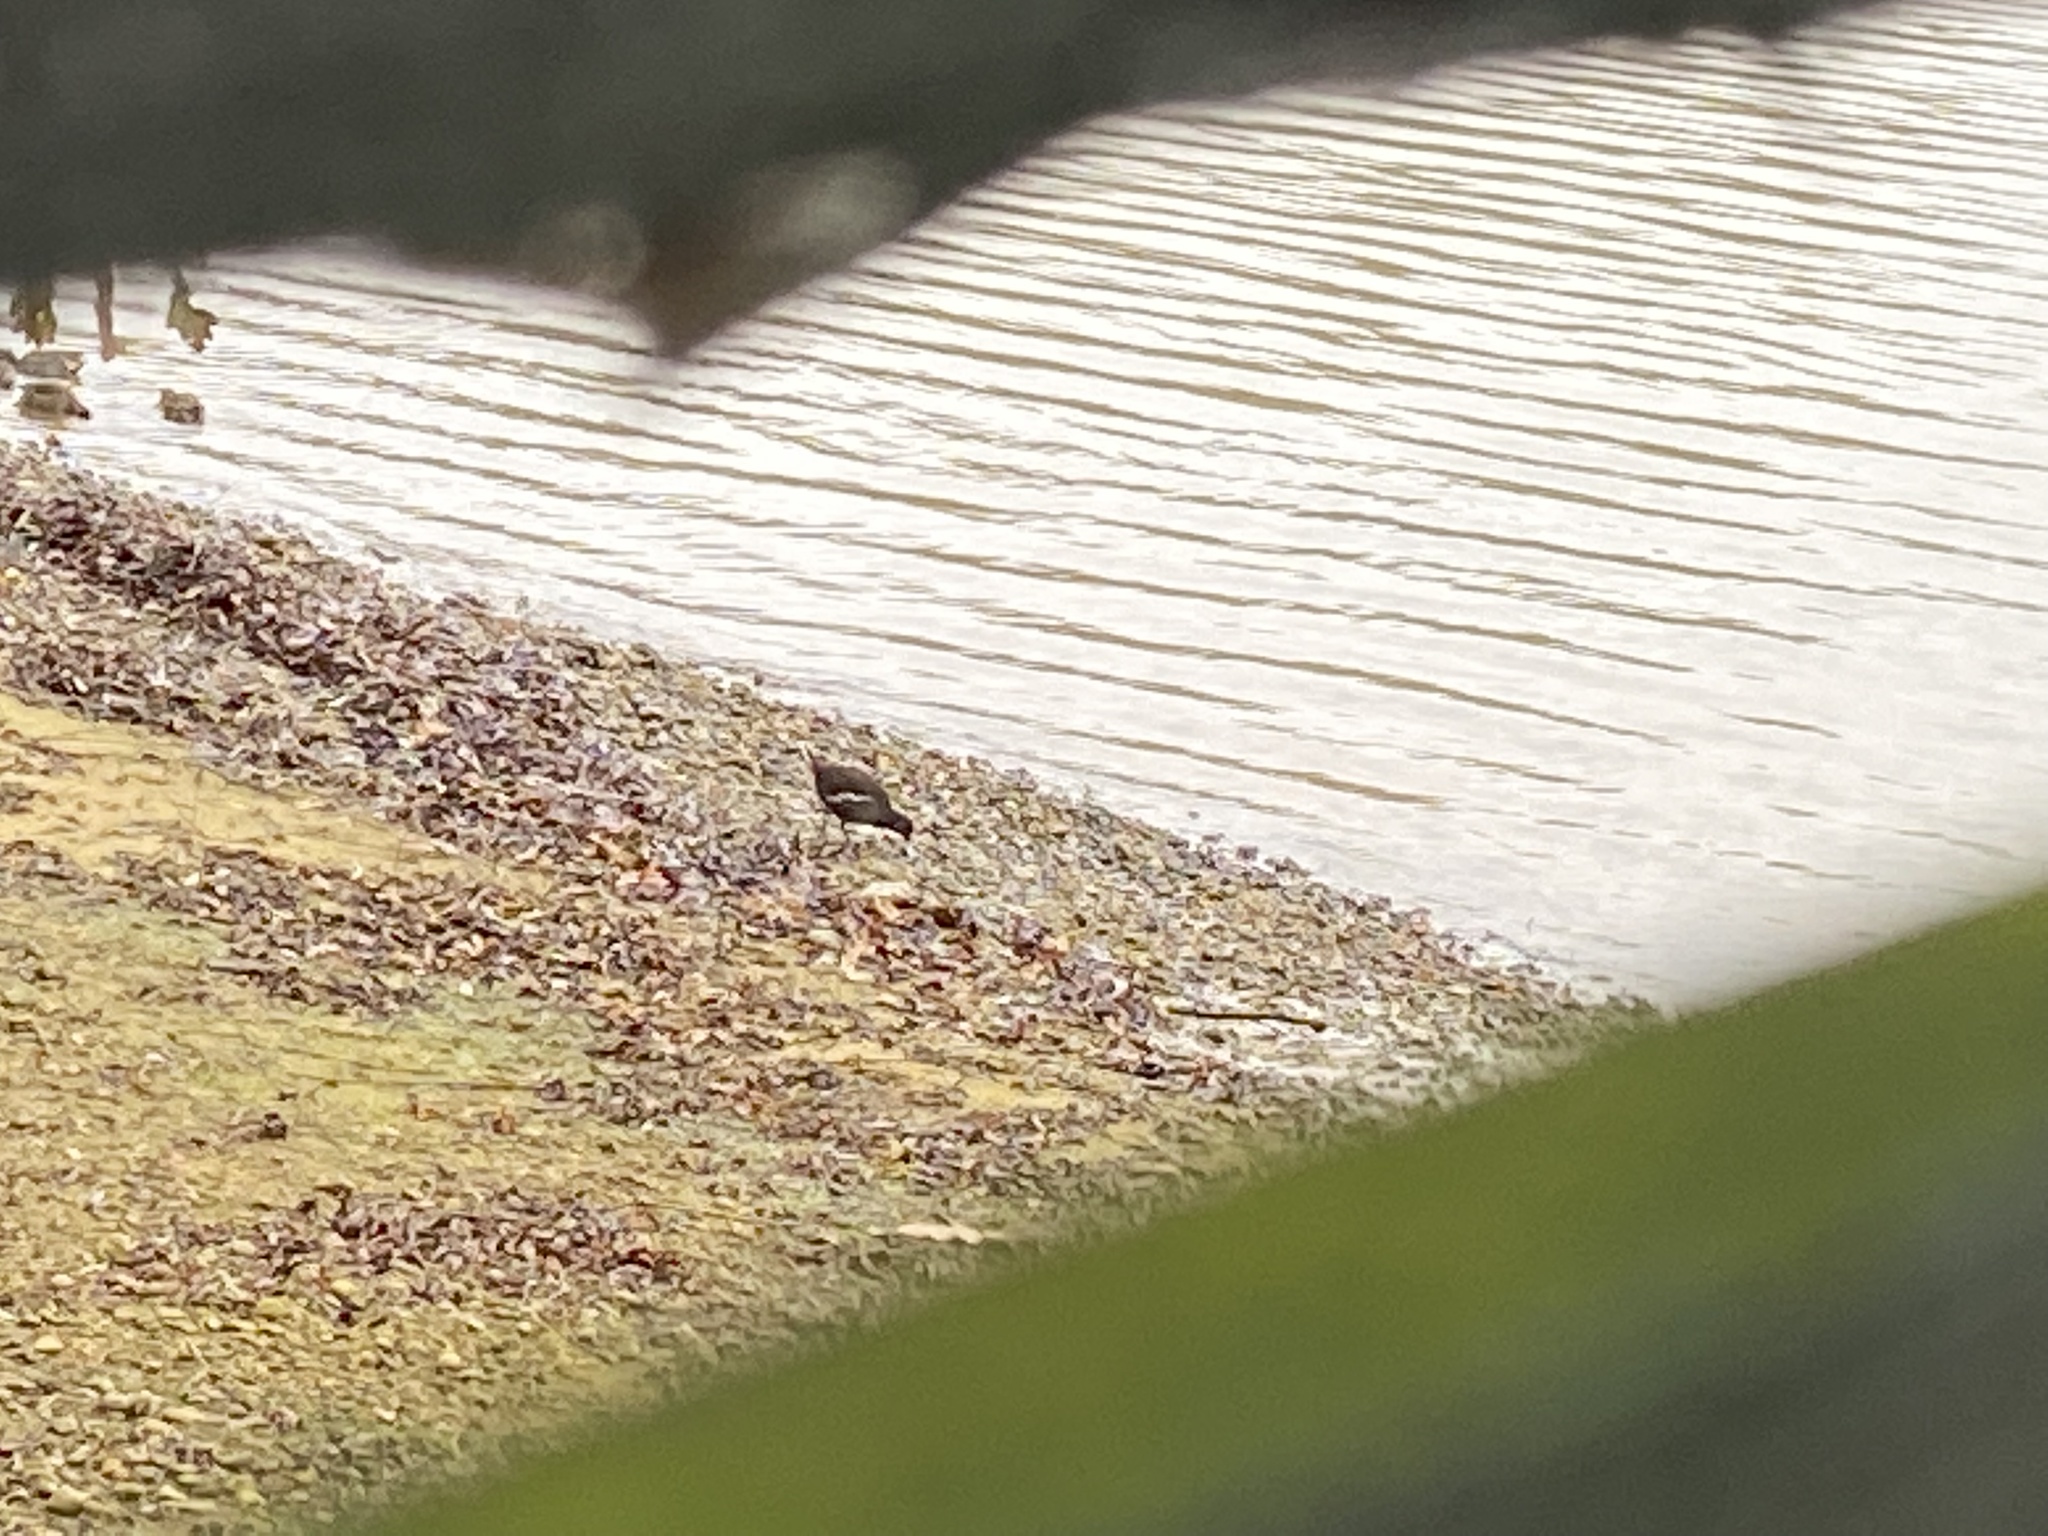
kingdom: Animalia
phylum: Chordata
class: Aves
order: Gruiformes
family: Rallidae
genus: Gallinula
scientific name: Gallinula chloropus
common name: Common moorhen
